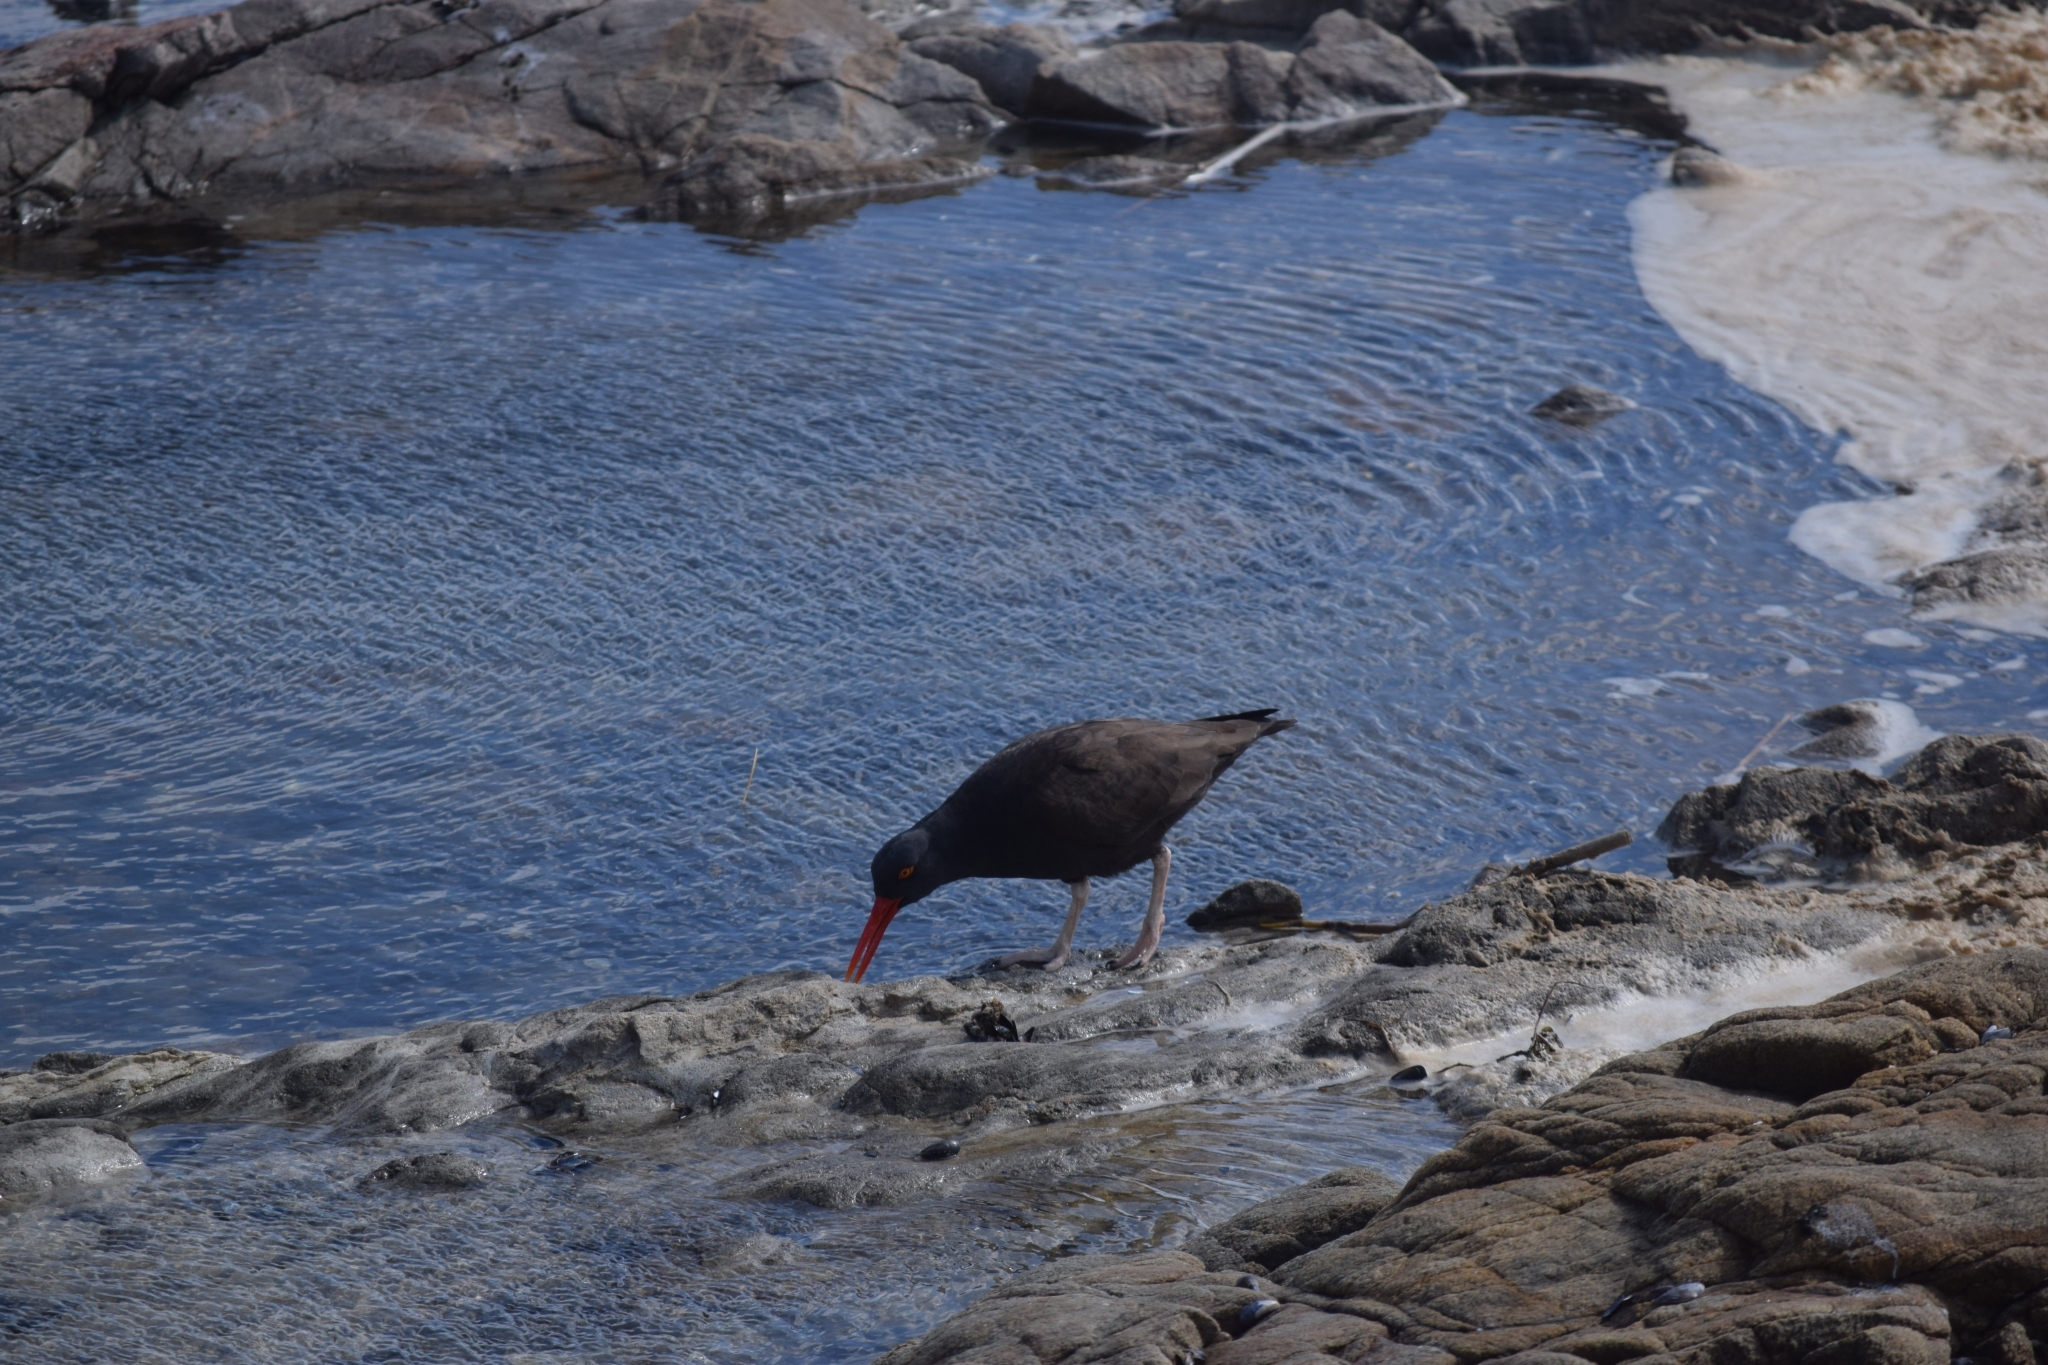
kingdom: Animalia
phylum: Chordata
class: Aves
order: Charadriiformes
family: Haematopodidae
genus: Haematopus
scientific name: Haematopus ater
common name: Blackish oystercatcher
